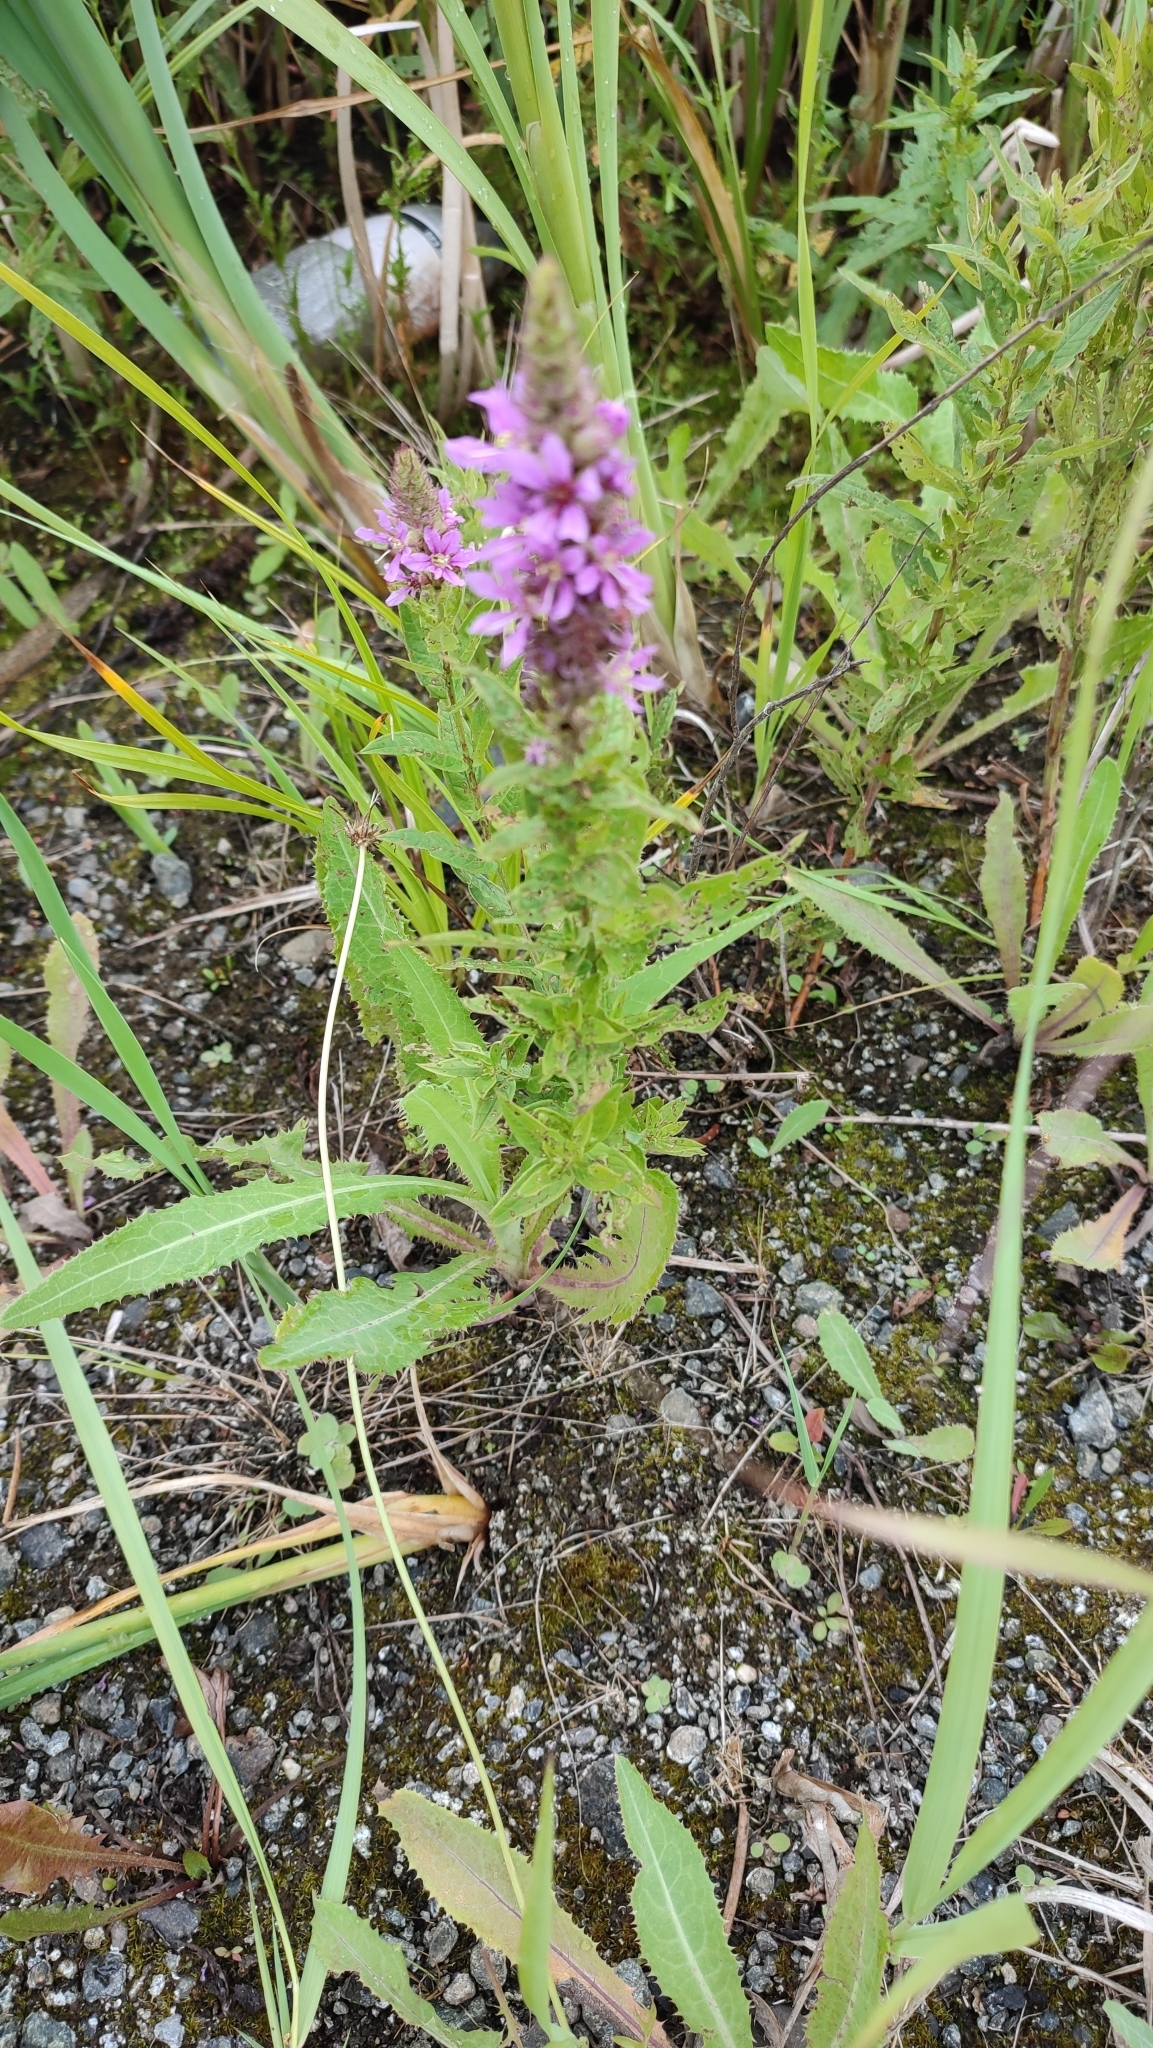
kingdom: Plantae
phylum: Tracheophyta
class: Magnoliopsida
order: Myrtales
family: Lythraceae
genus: Lythrum
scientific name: Lythrum salicaria
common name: Purple loosestrife
